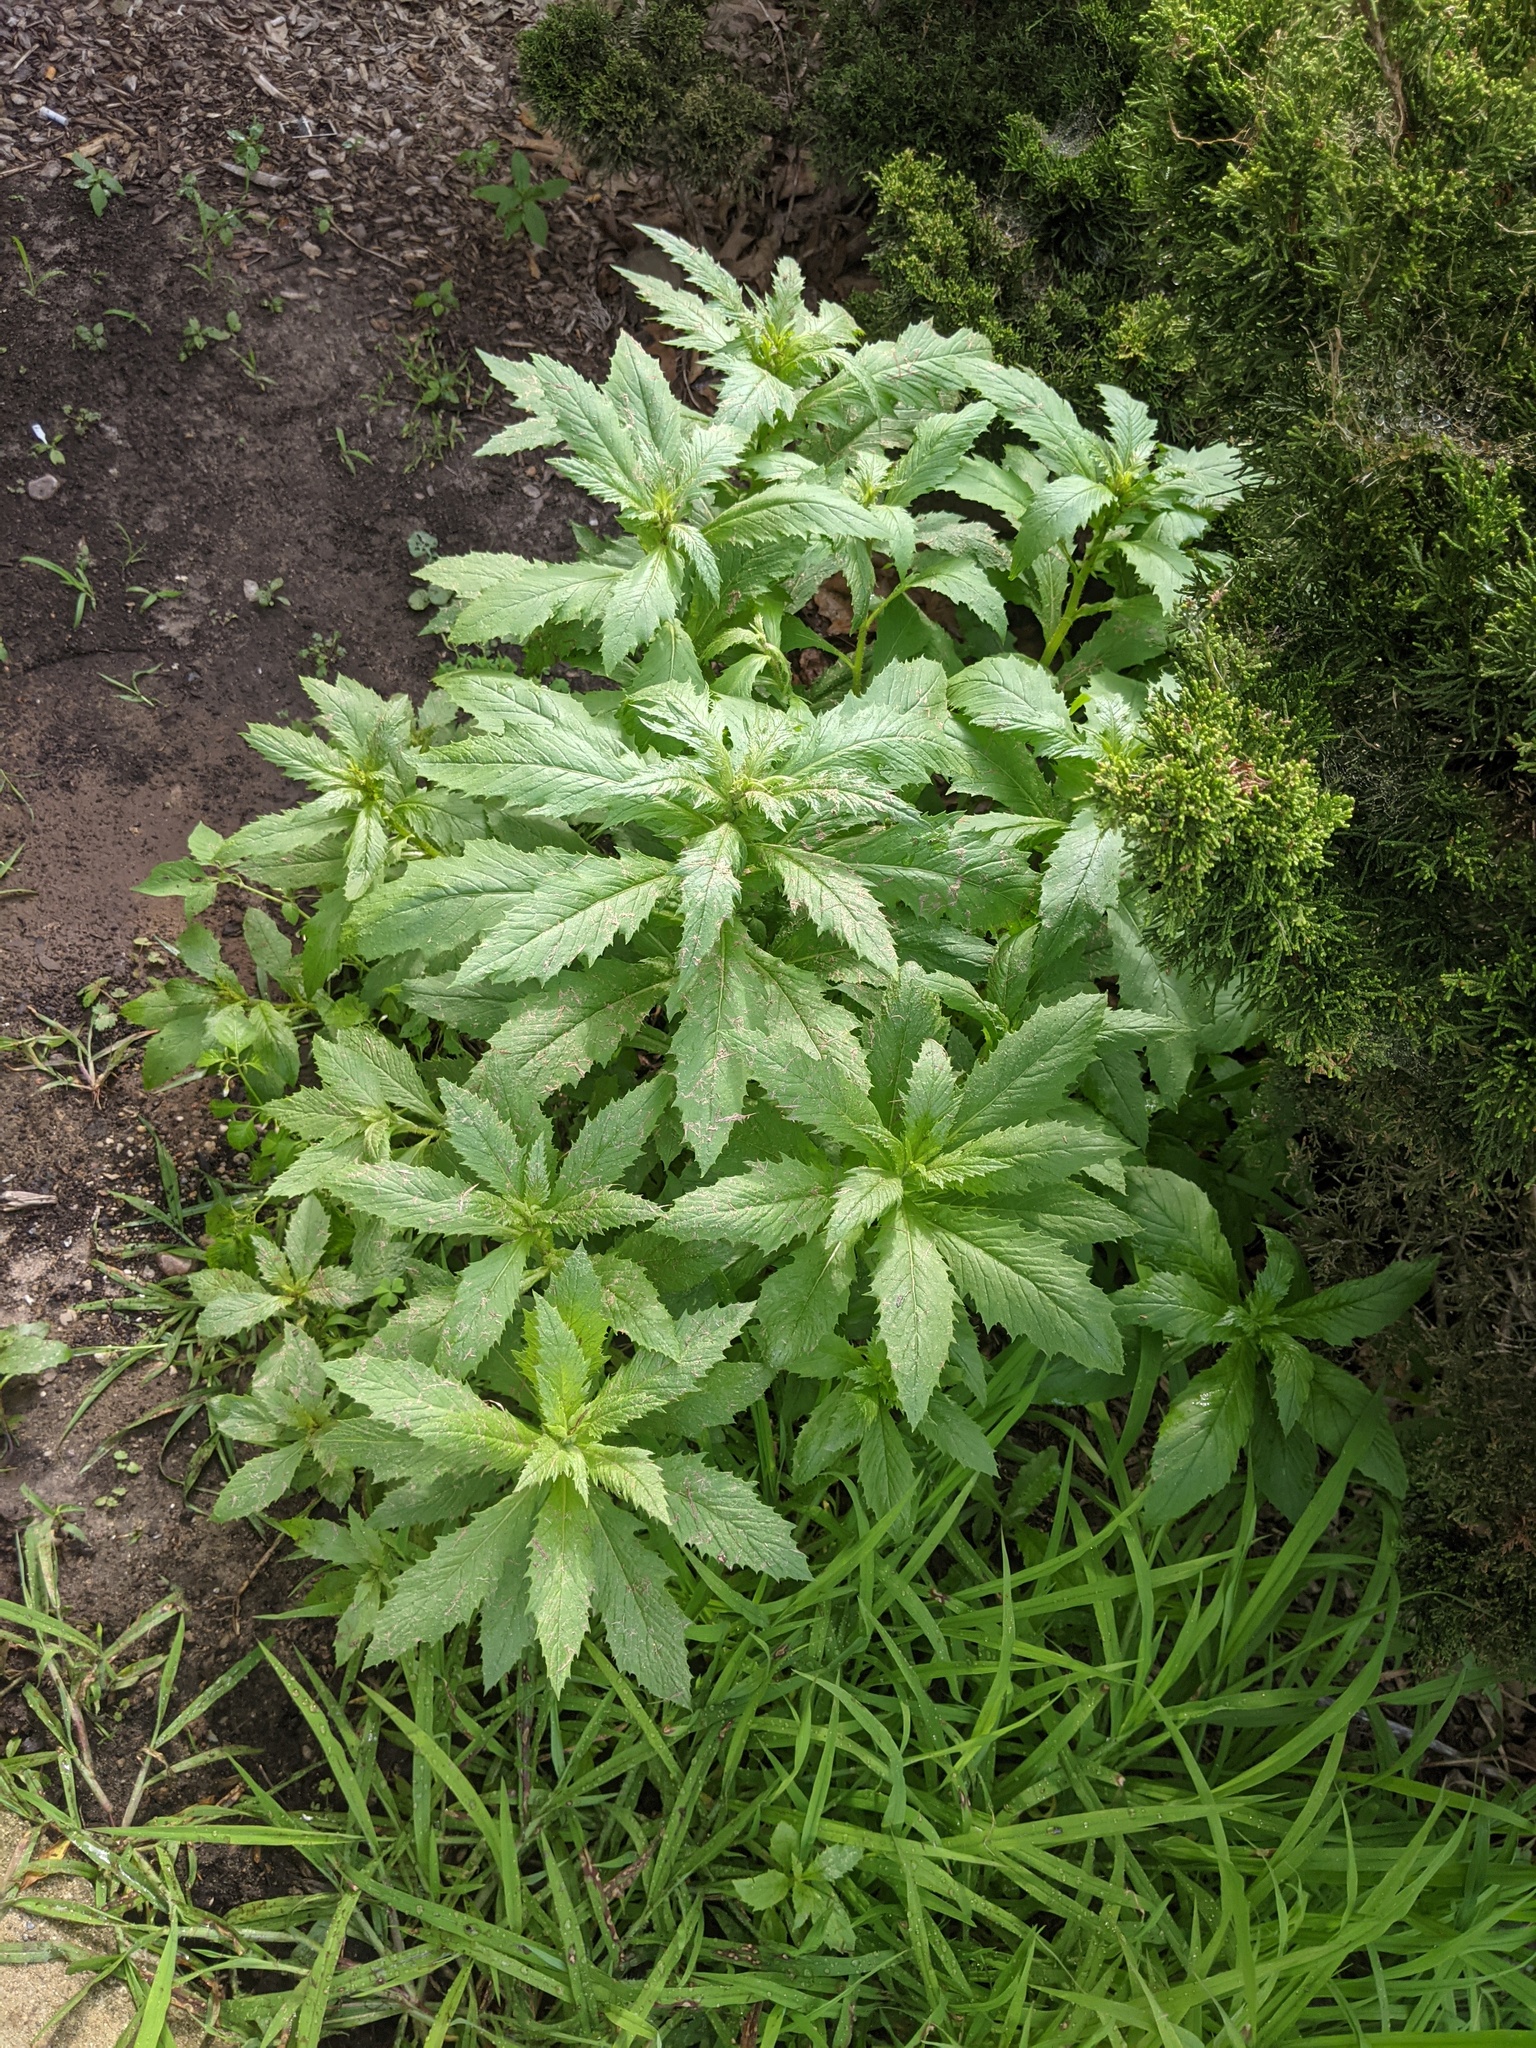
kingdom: Plantae
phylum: Tracheophyta
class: Magnoliopsida
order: Asterales
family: Asteraceae
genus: Erechtites
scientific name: Erechtites hieraciifolius
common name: American burnweed
